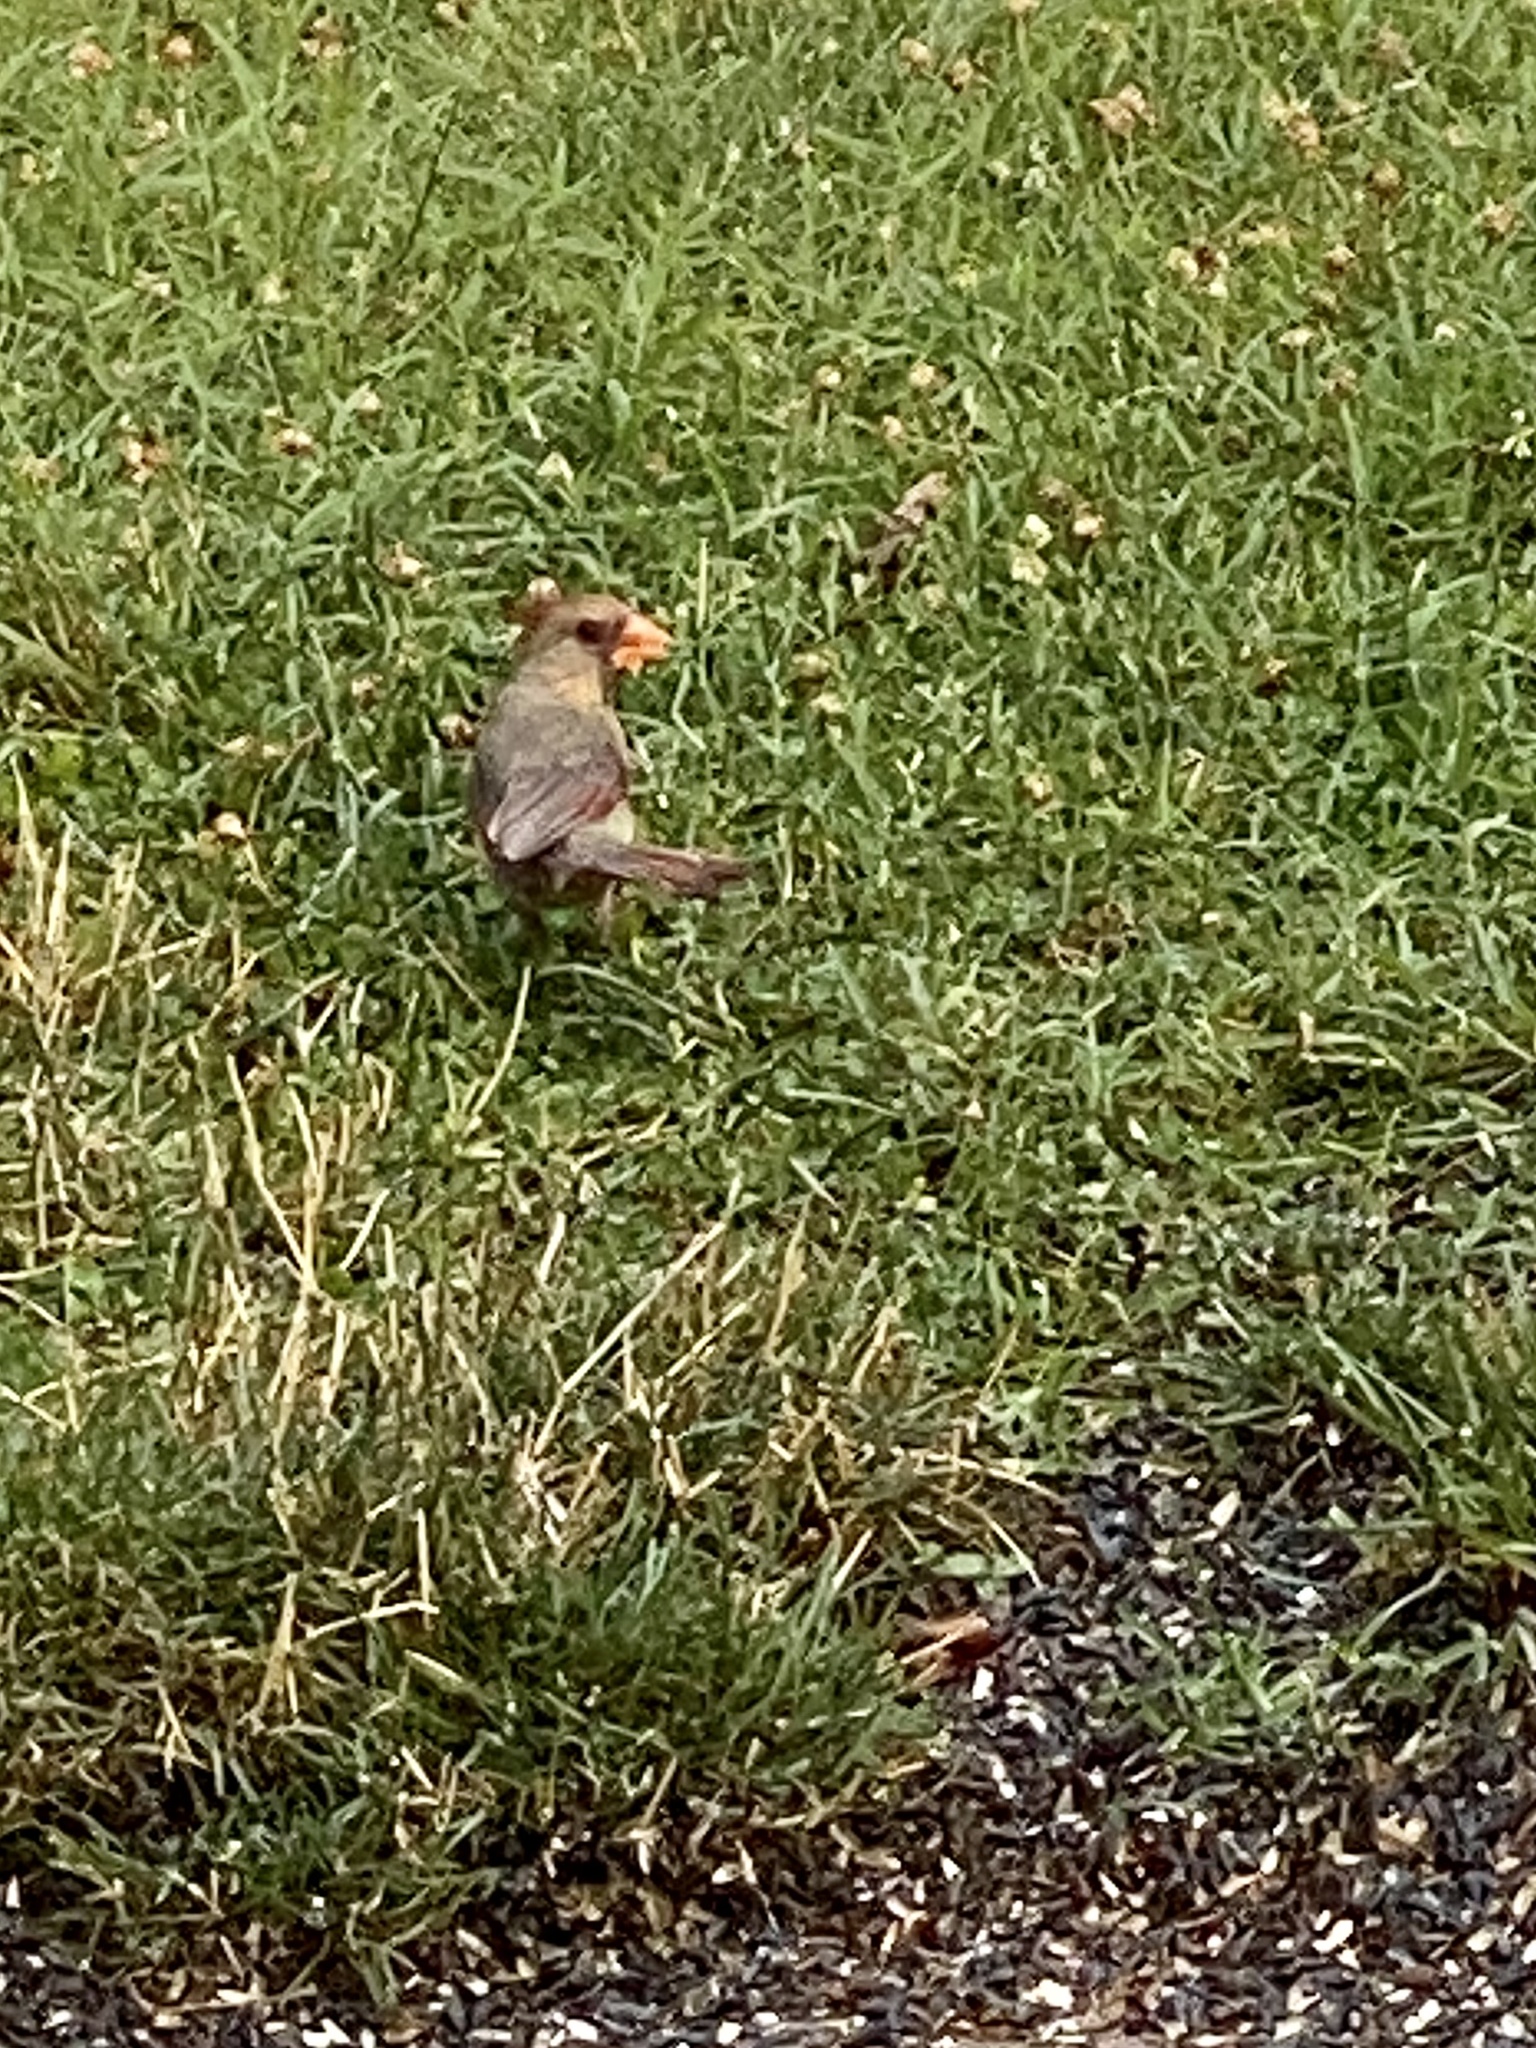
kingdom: Animalia
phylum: Chordata
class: Aves
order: Passeriformes
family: Cardinalidae
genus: Cardinalis
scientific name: Cardinalis cardinalis
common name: Northern cardinal
